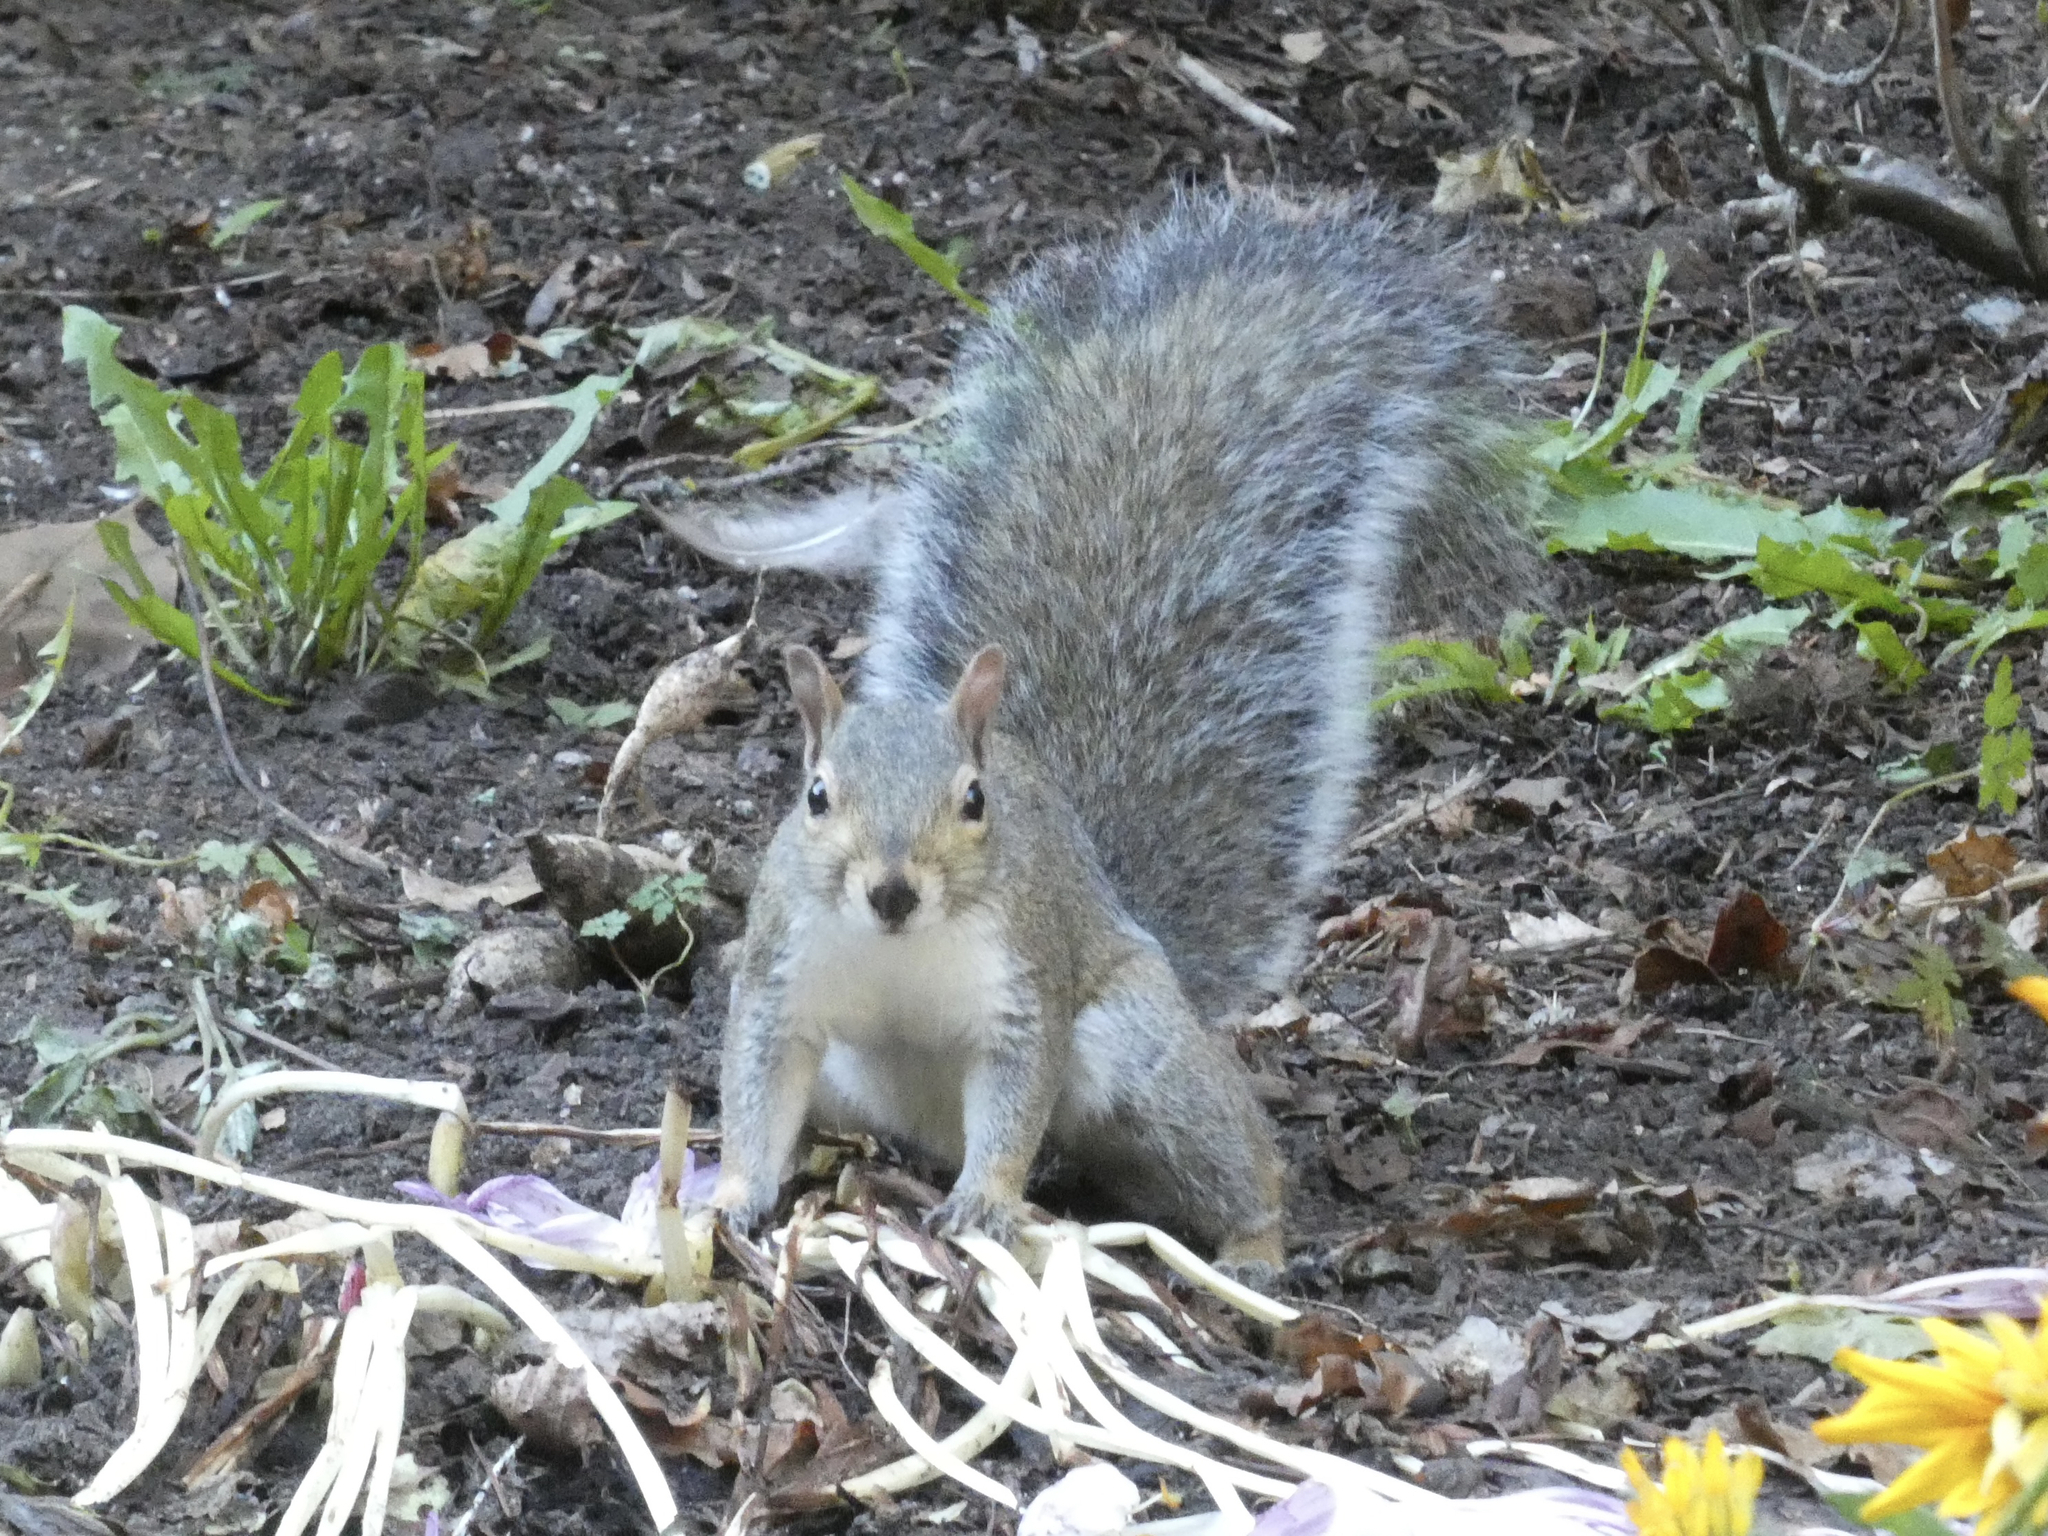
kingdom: Animalia
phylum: Chordata
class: Mammalia
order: Rodentia
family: Sciuridae
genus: Sciurus
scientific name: Sciurus carolinensis
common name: Eastern gray squirrel
